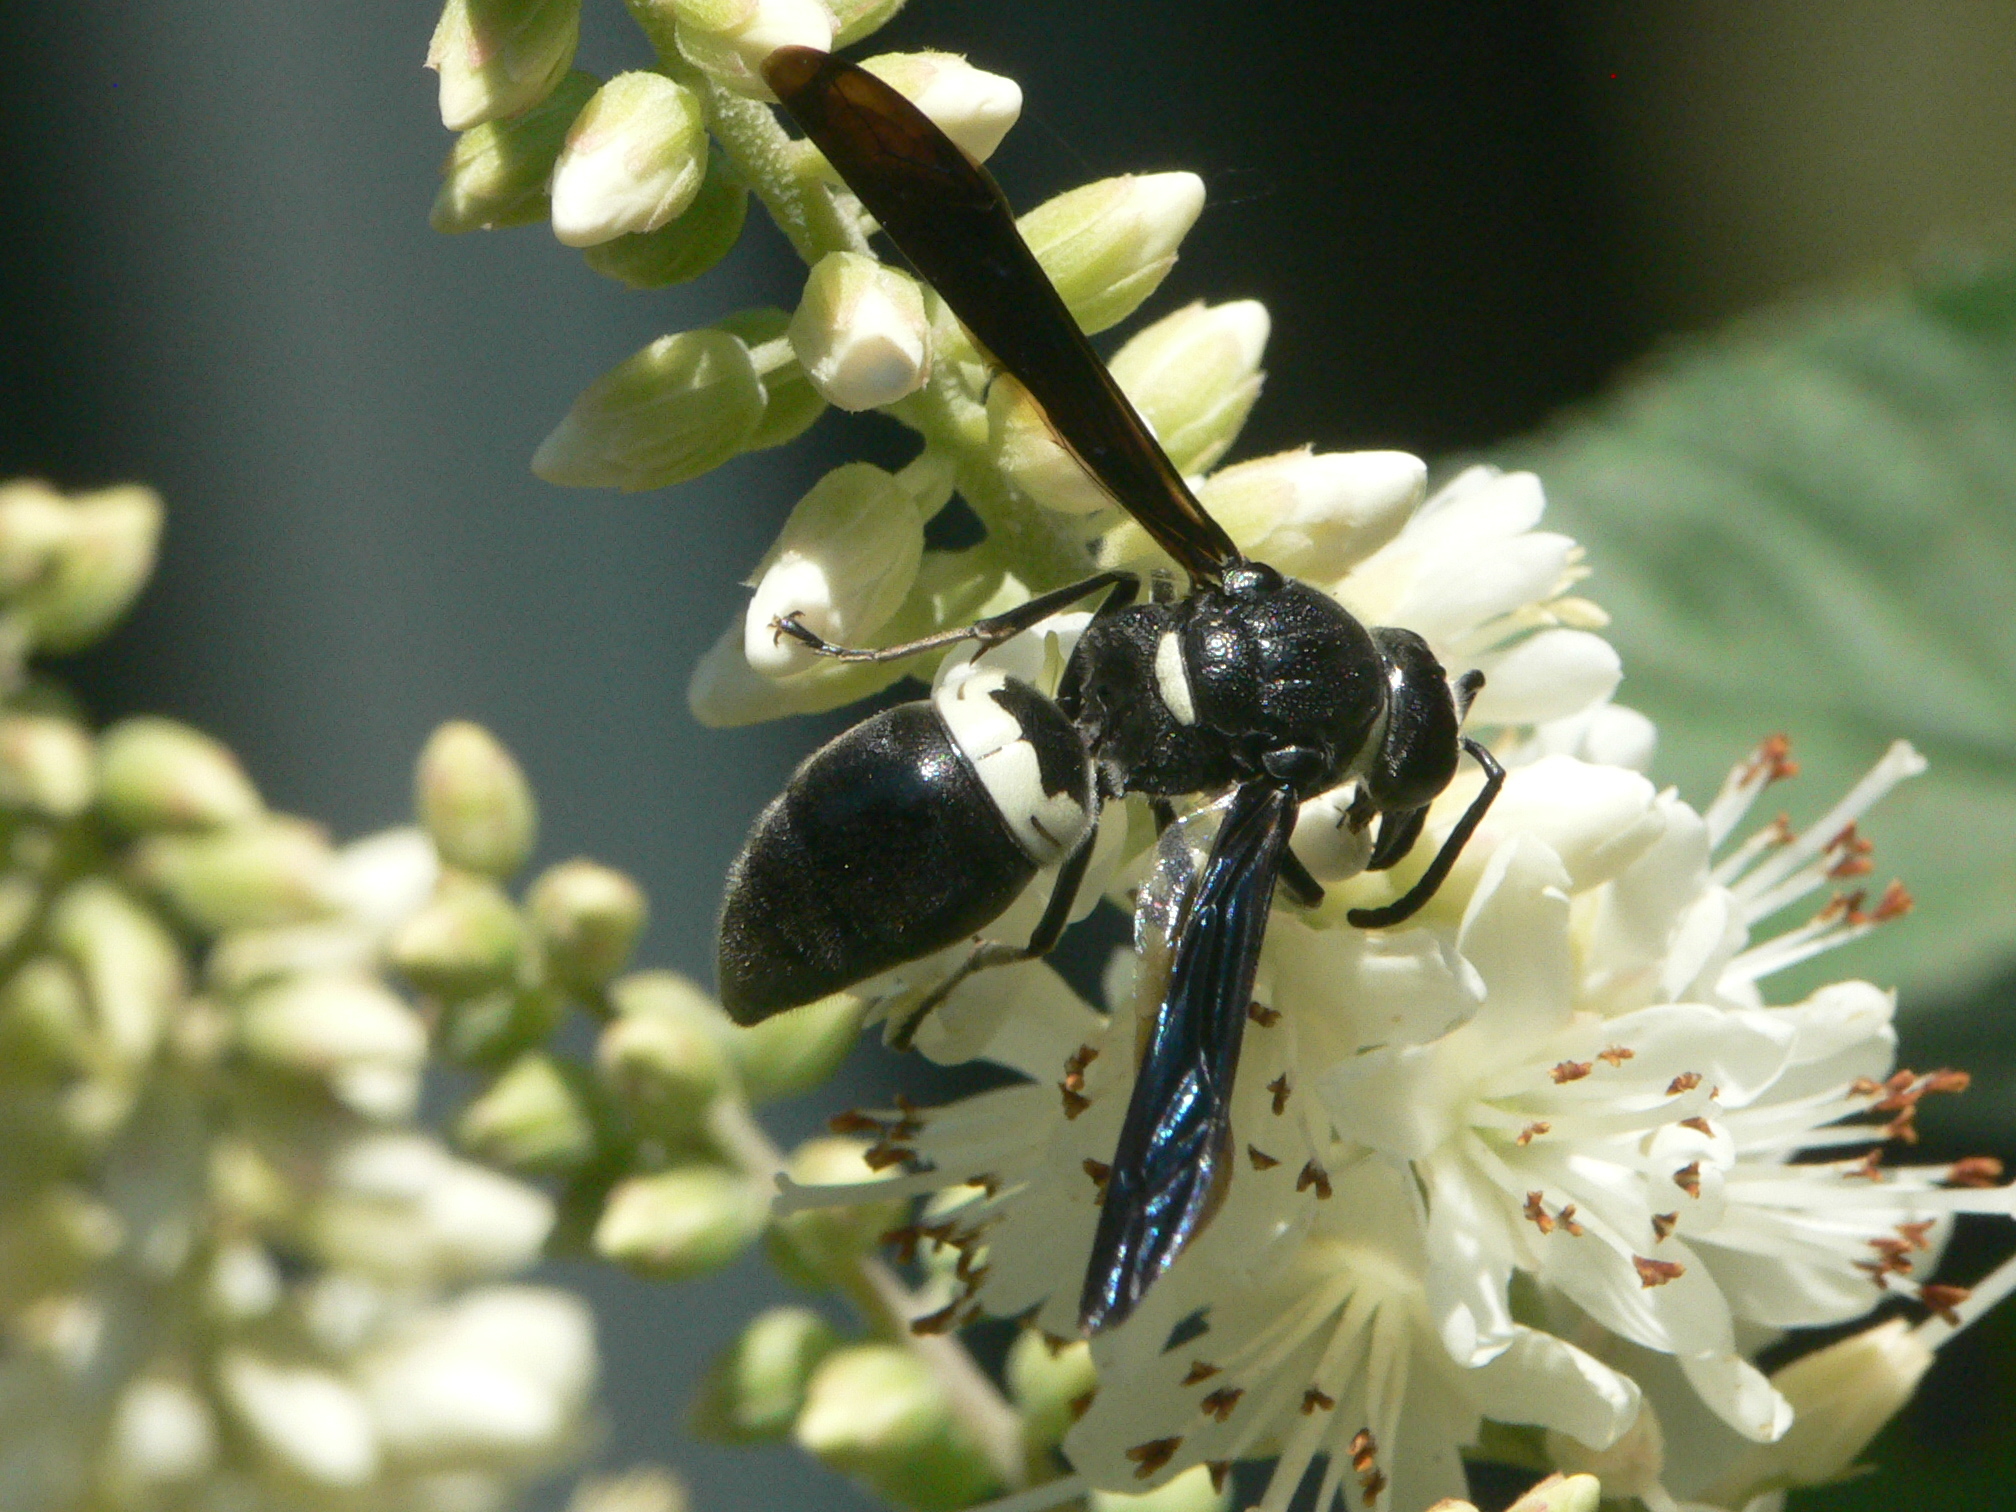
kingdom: Animalia
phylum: Arthropoda
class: Insecta
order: Hymenoptera
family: Eumenidae
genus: Monobia
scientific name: Monobia quadridens
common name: Four-toothed mason wasp
